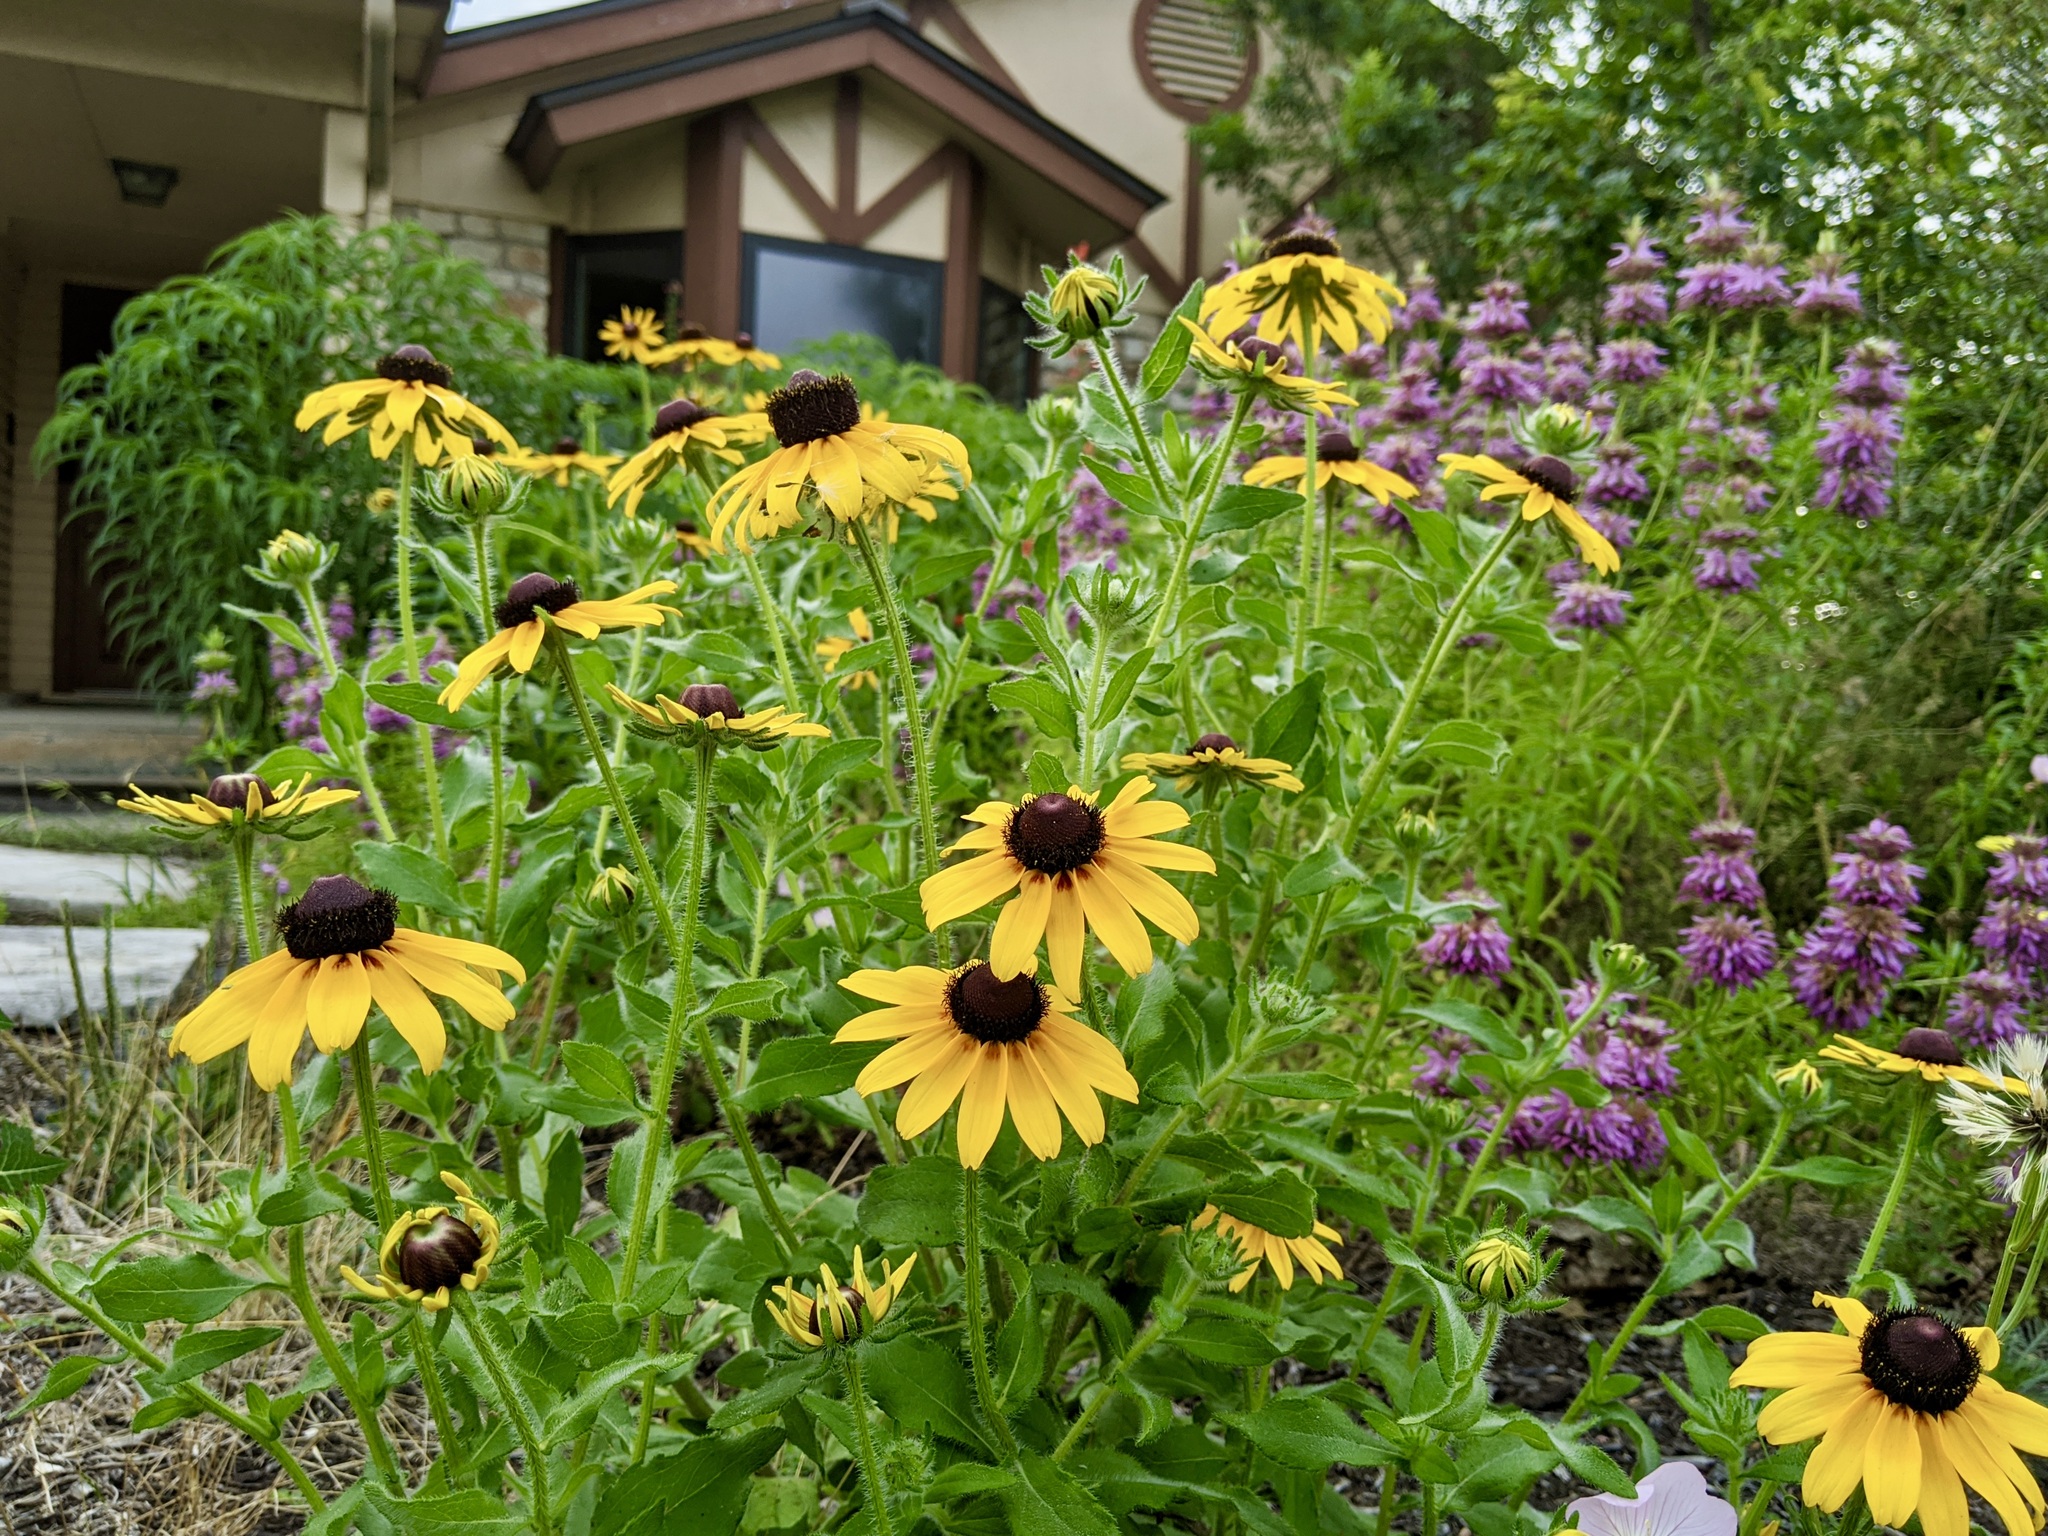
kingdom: Plantae
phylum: Tracheophyta
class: Magnoliopsida
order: Asterales
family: Asteraceae
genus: Rudbeckia
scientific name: Rudbeckia hirta
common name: Black-eyed-susan
